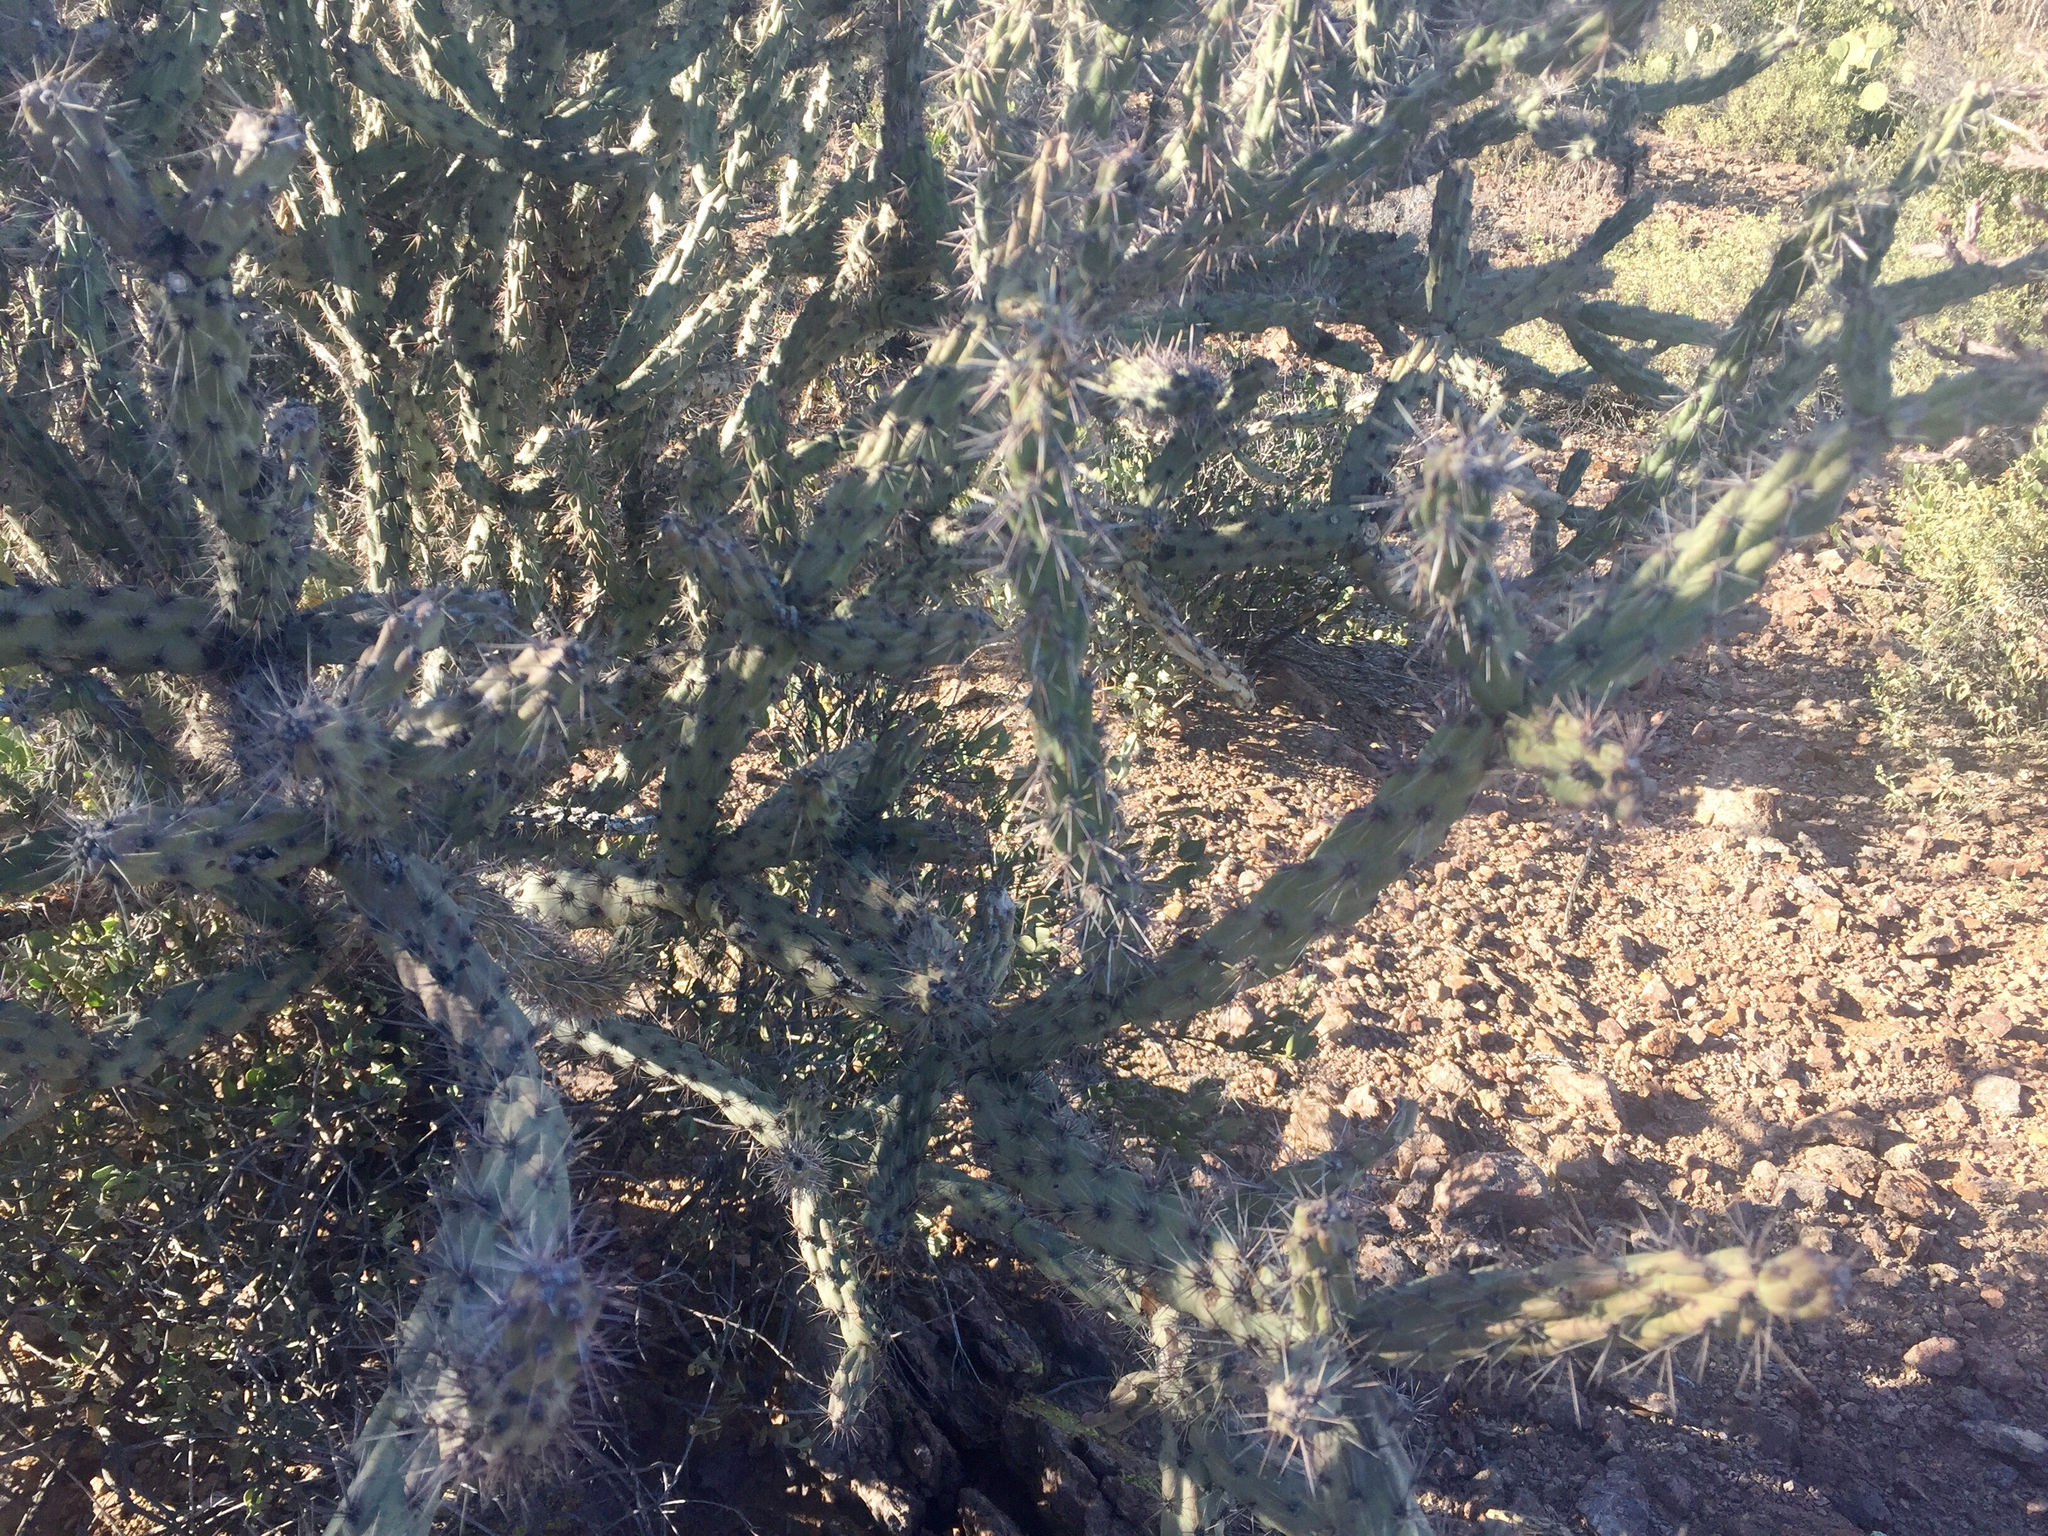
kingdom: Plantae
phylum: Tracheophyta
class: Magnoliopsida
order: Caryophyllales
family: Cactaceae
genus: Cylindropuntia
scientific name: Cylindropuntia acanthocarpa
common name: Buckhorn cholla
